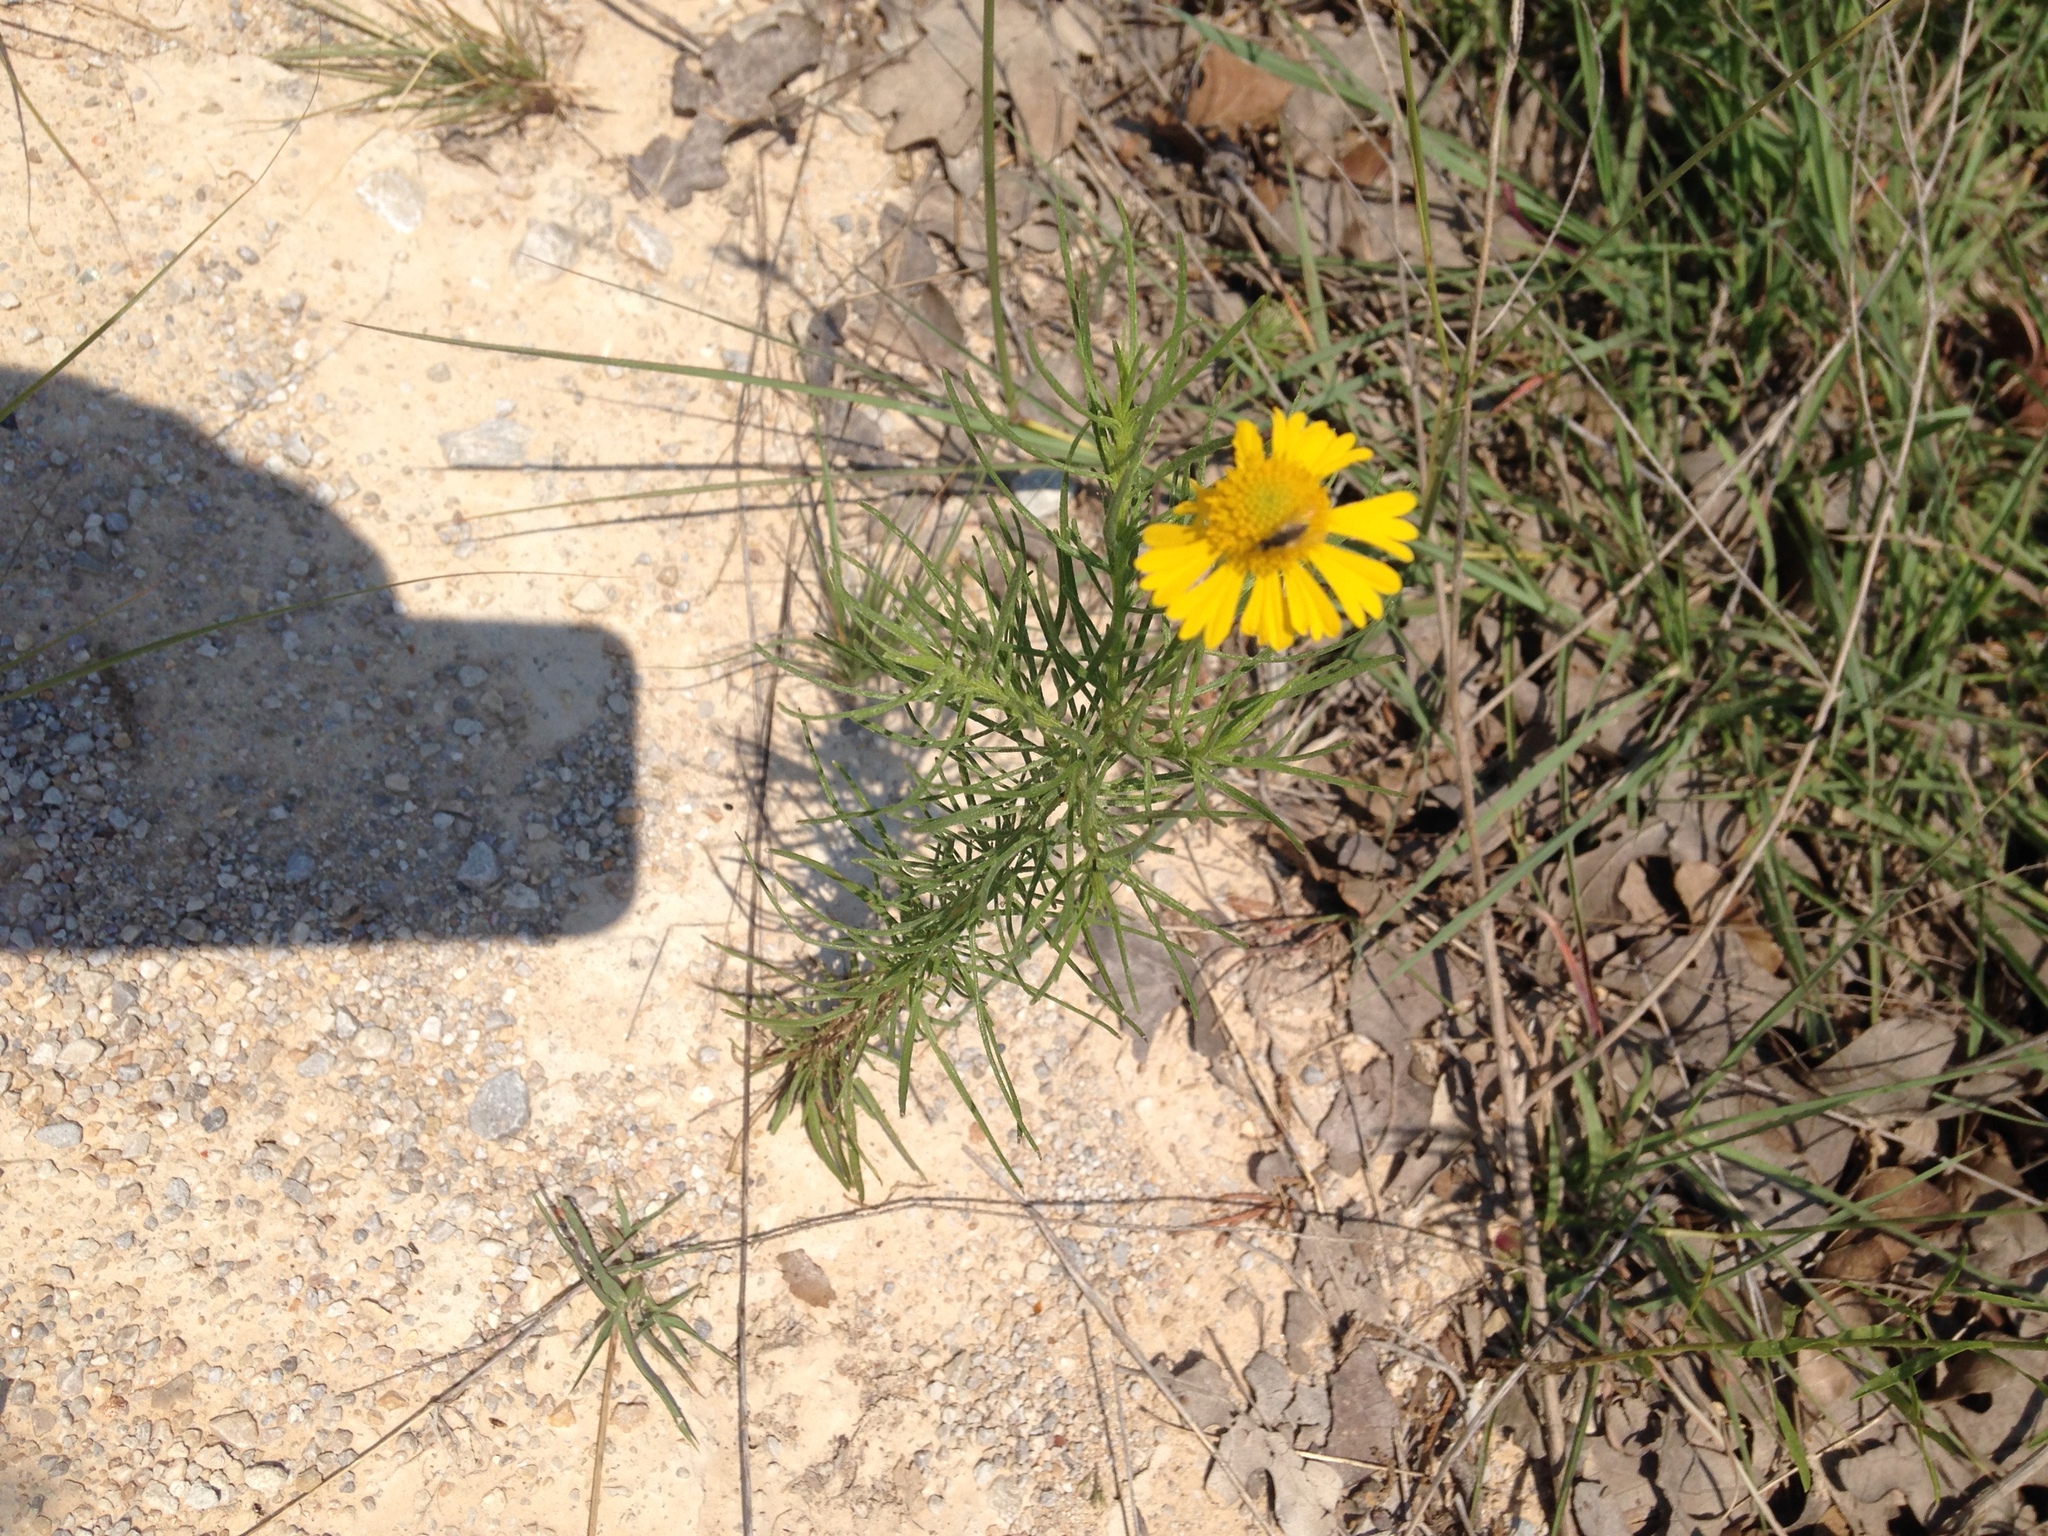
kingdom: Plantae
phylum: Tracheophyta
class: Magnoliopsida
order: Asterales
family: Asteraceae
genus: Helenium
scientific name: Helenium amarum
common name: Bitter sneezeweed
